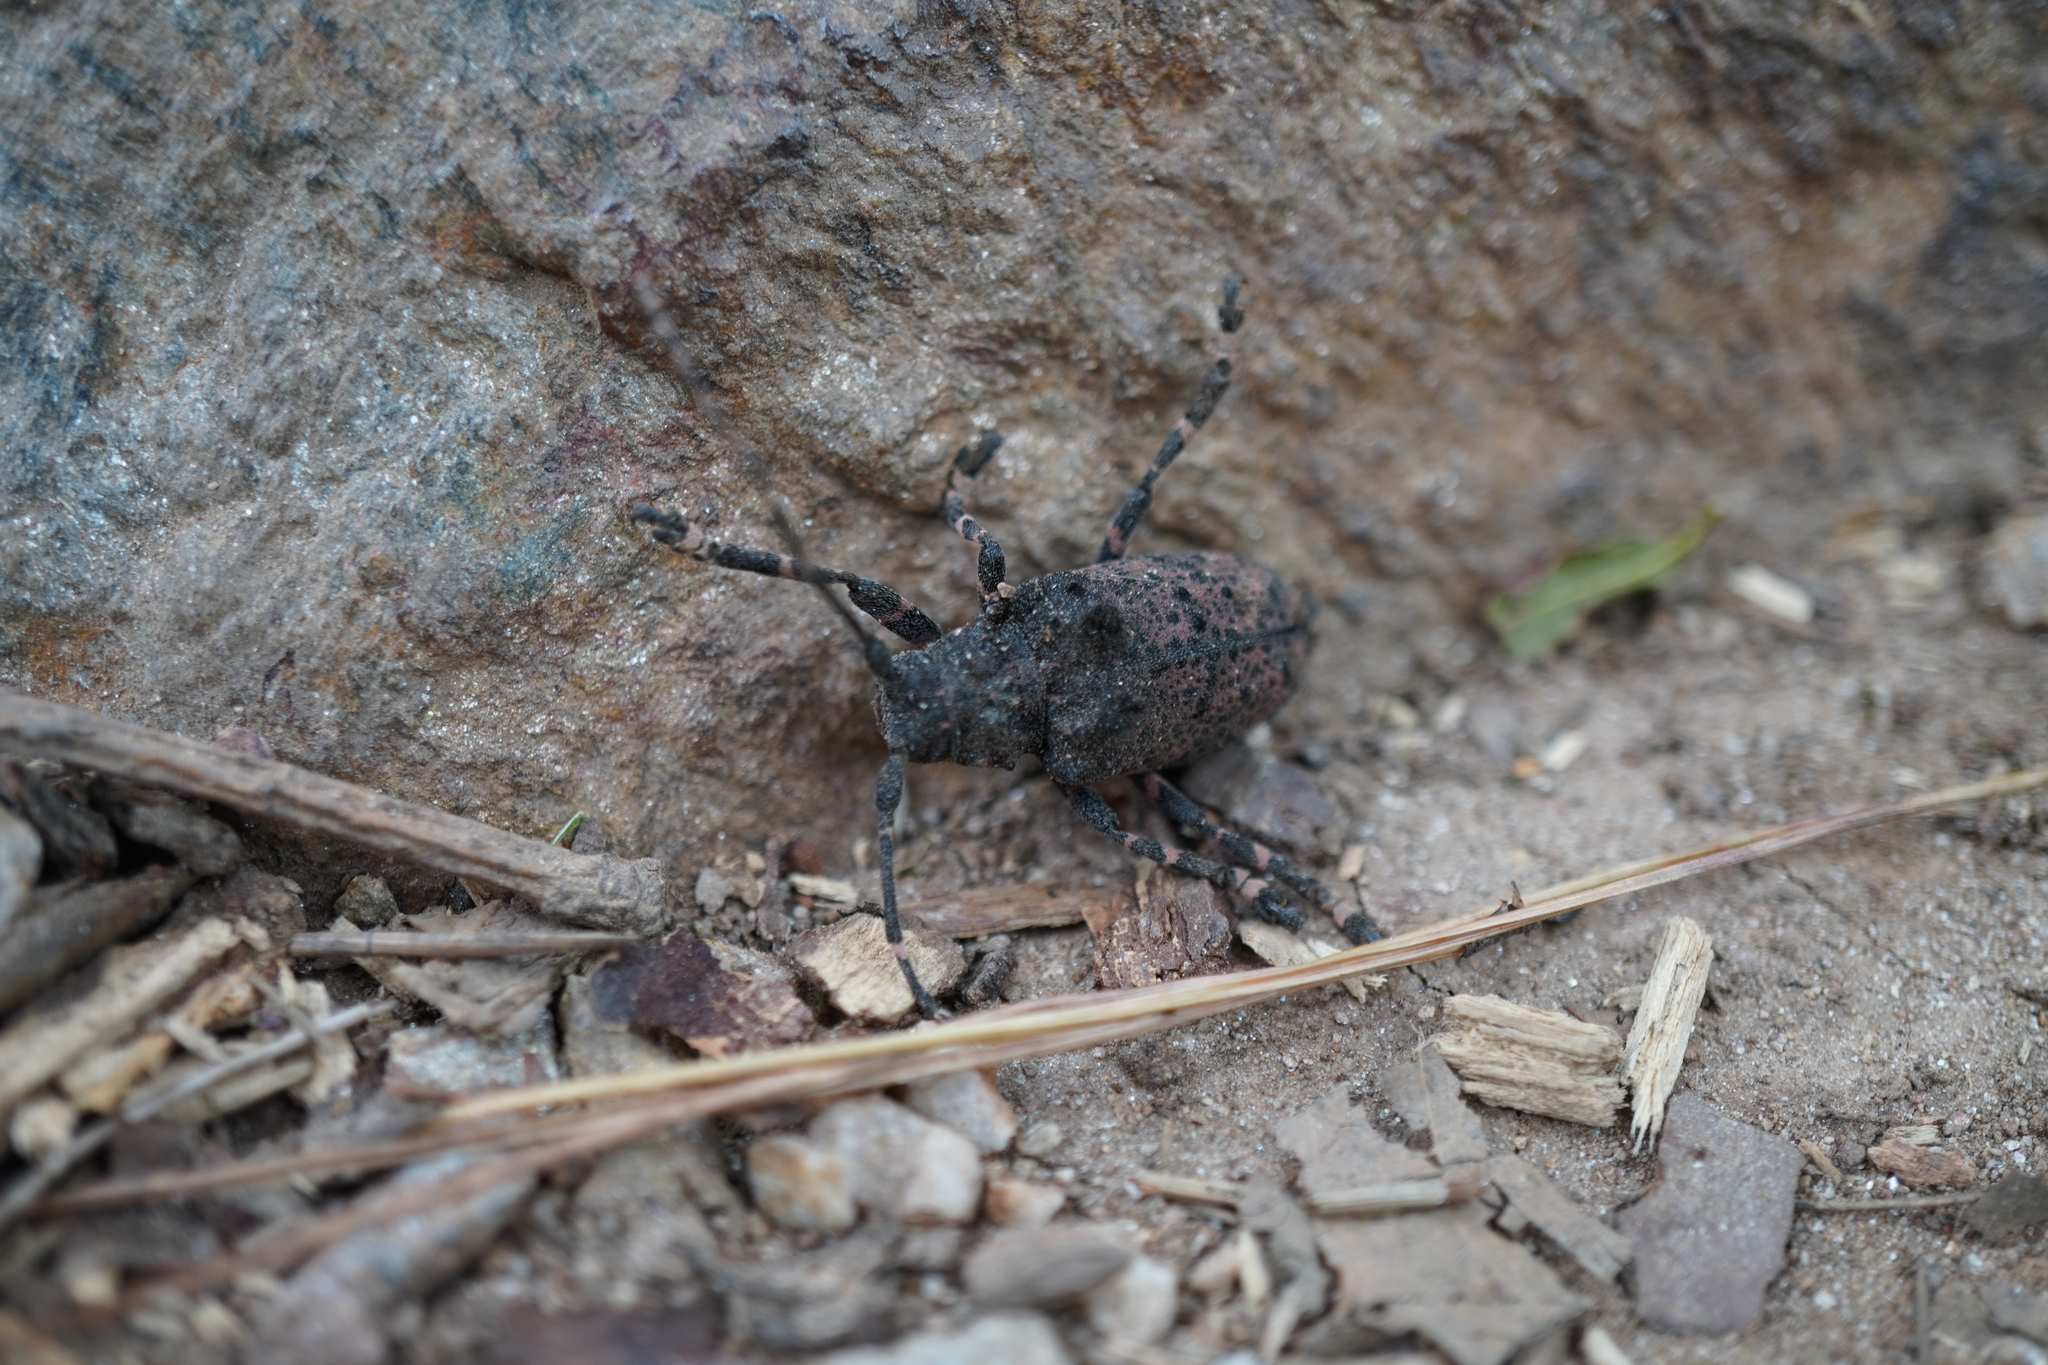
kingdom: Animalia
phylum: Arthropoda
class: Insecta
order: Coleoptera
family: Cerambycidae
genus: Moechotypa
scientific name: Moechotypa diphysis
